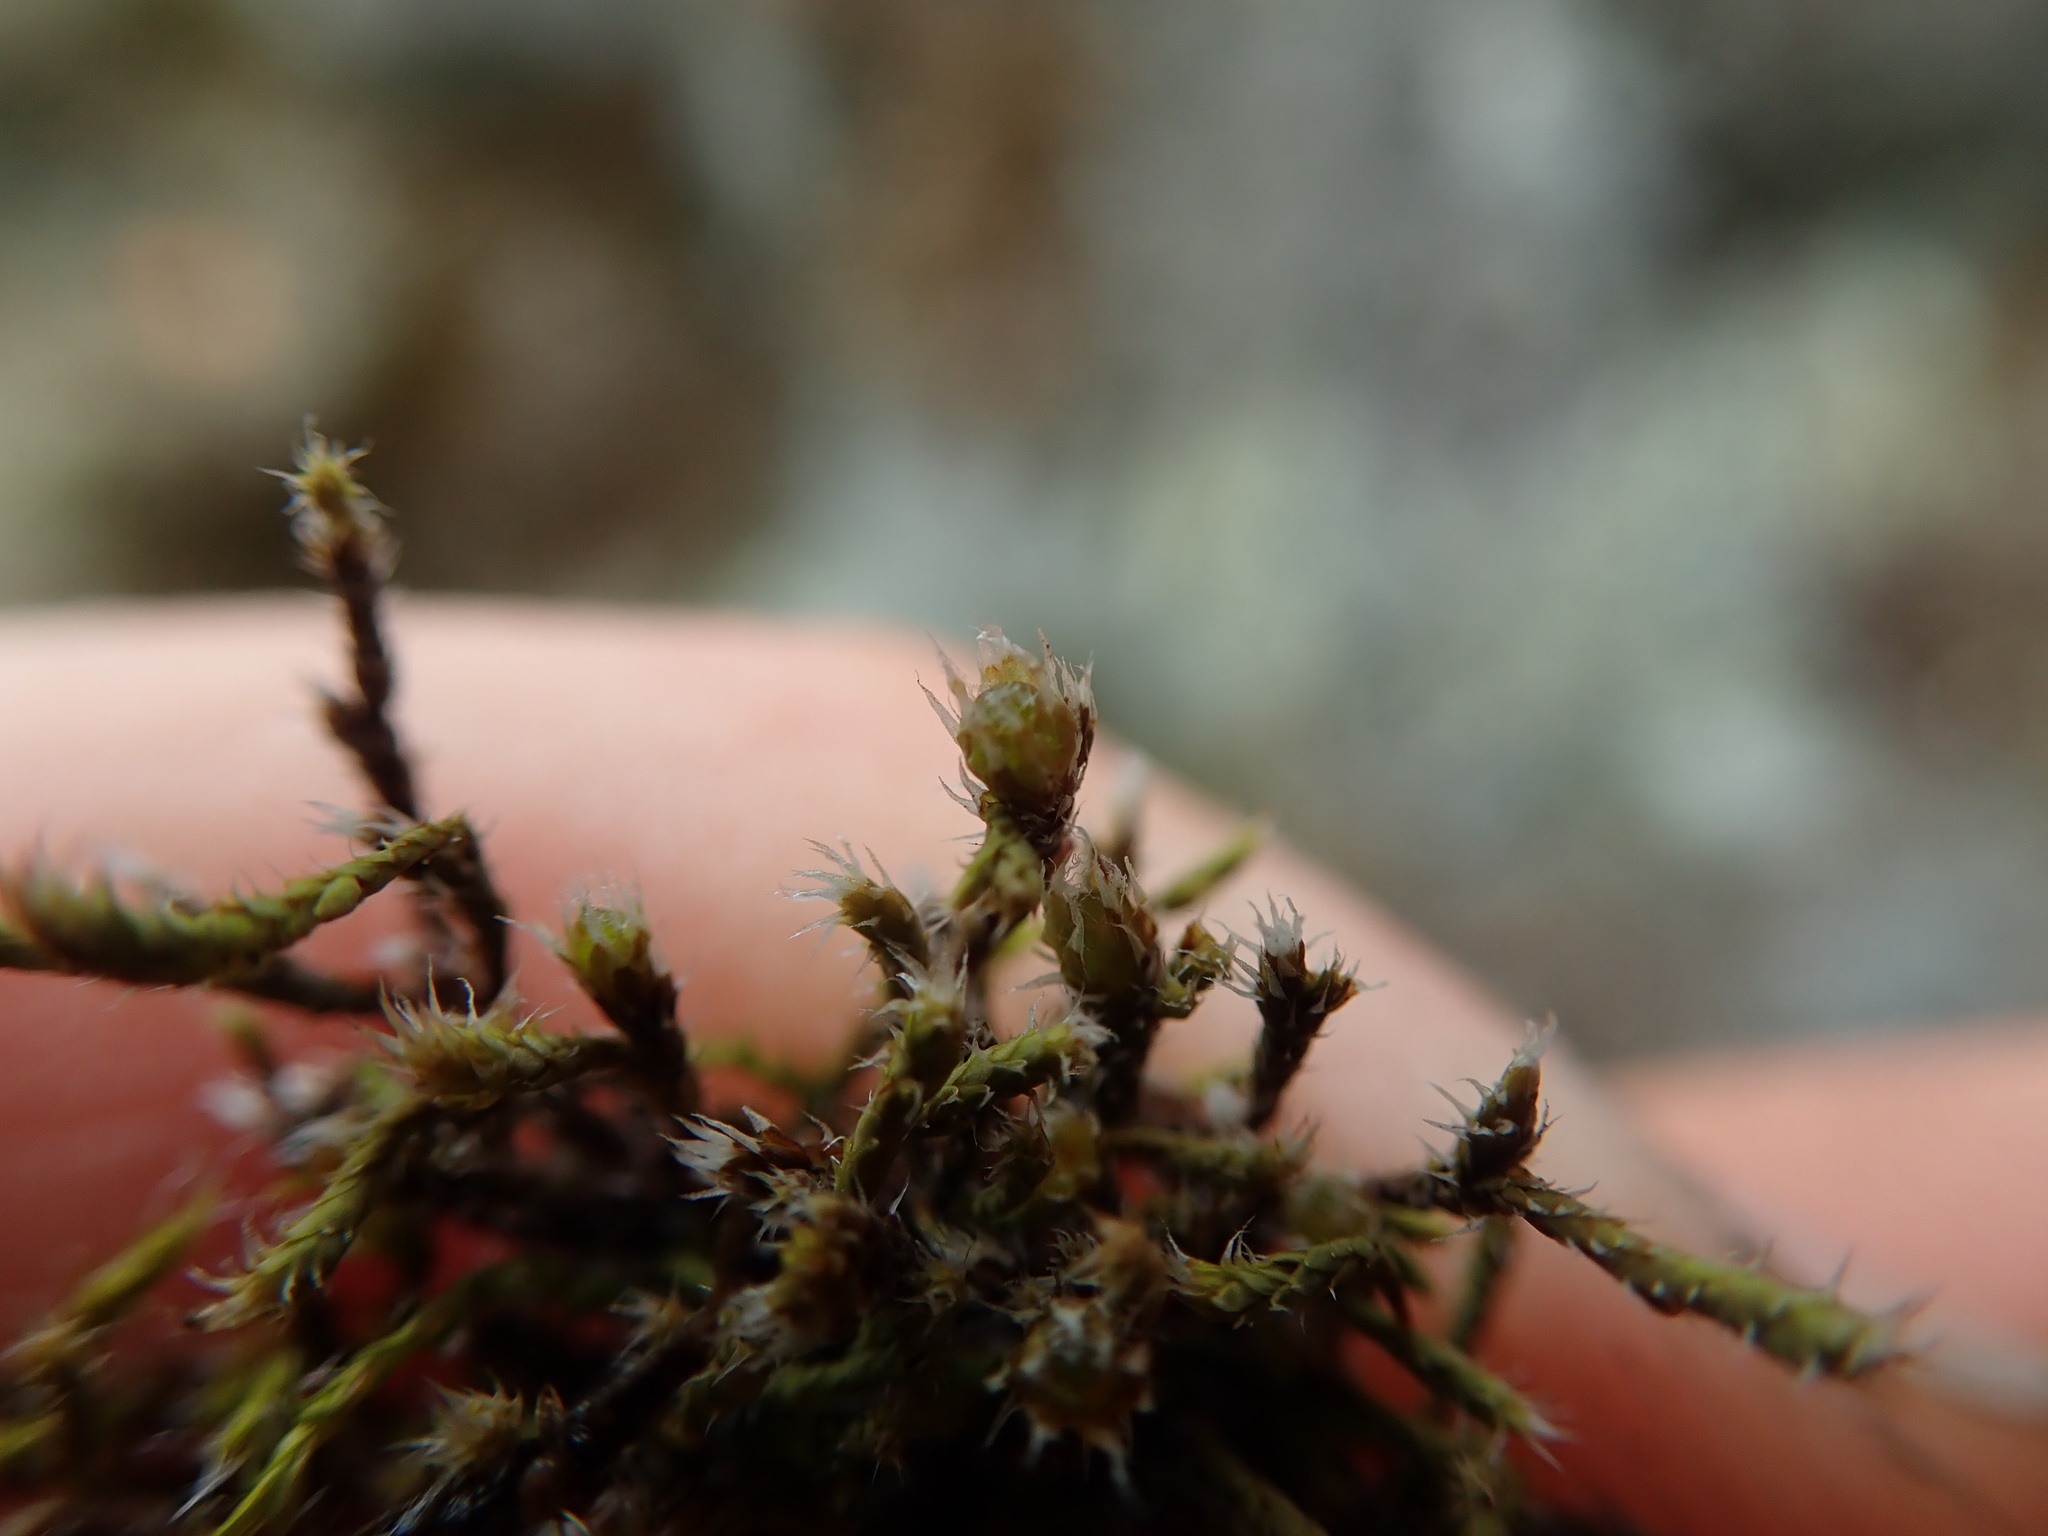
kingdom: Plantae
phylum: Bryophyta
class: Bryopsida
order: Hedwigiales
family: Hedwigiaceae
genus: Hedwigia
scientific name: Hedwigia stellata
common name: Starry hoar-moss
